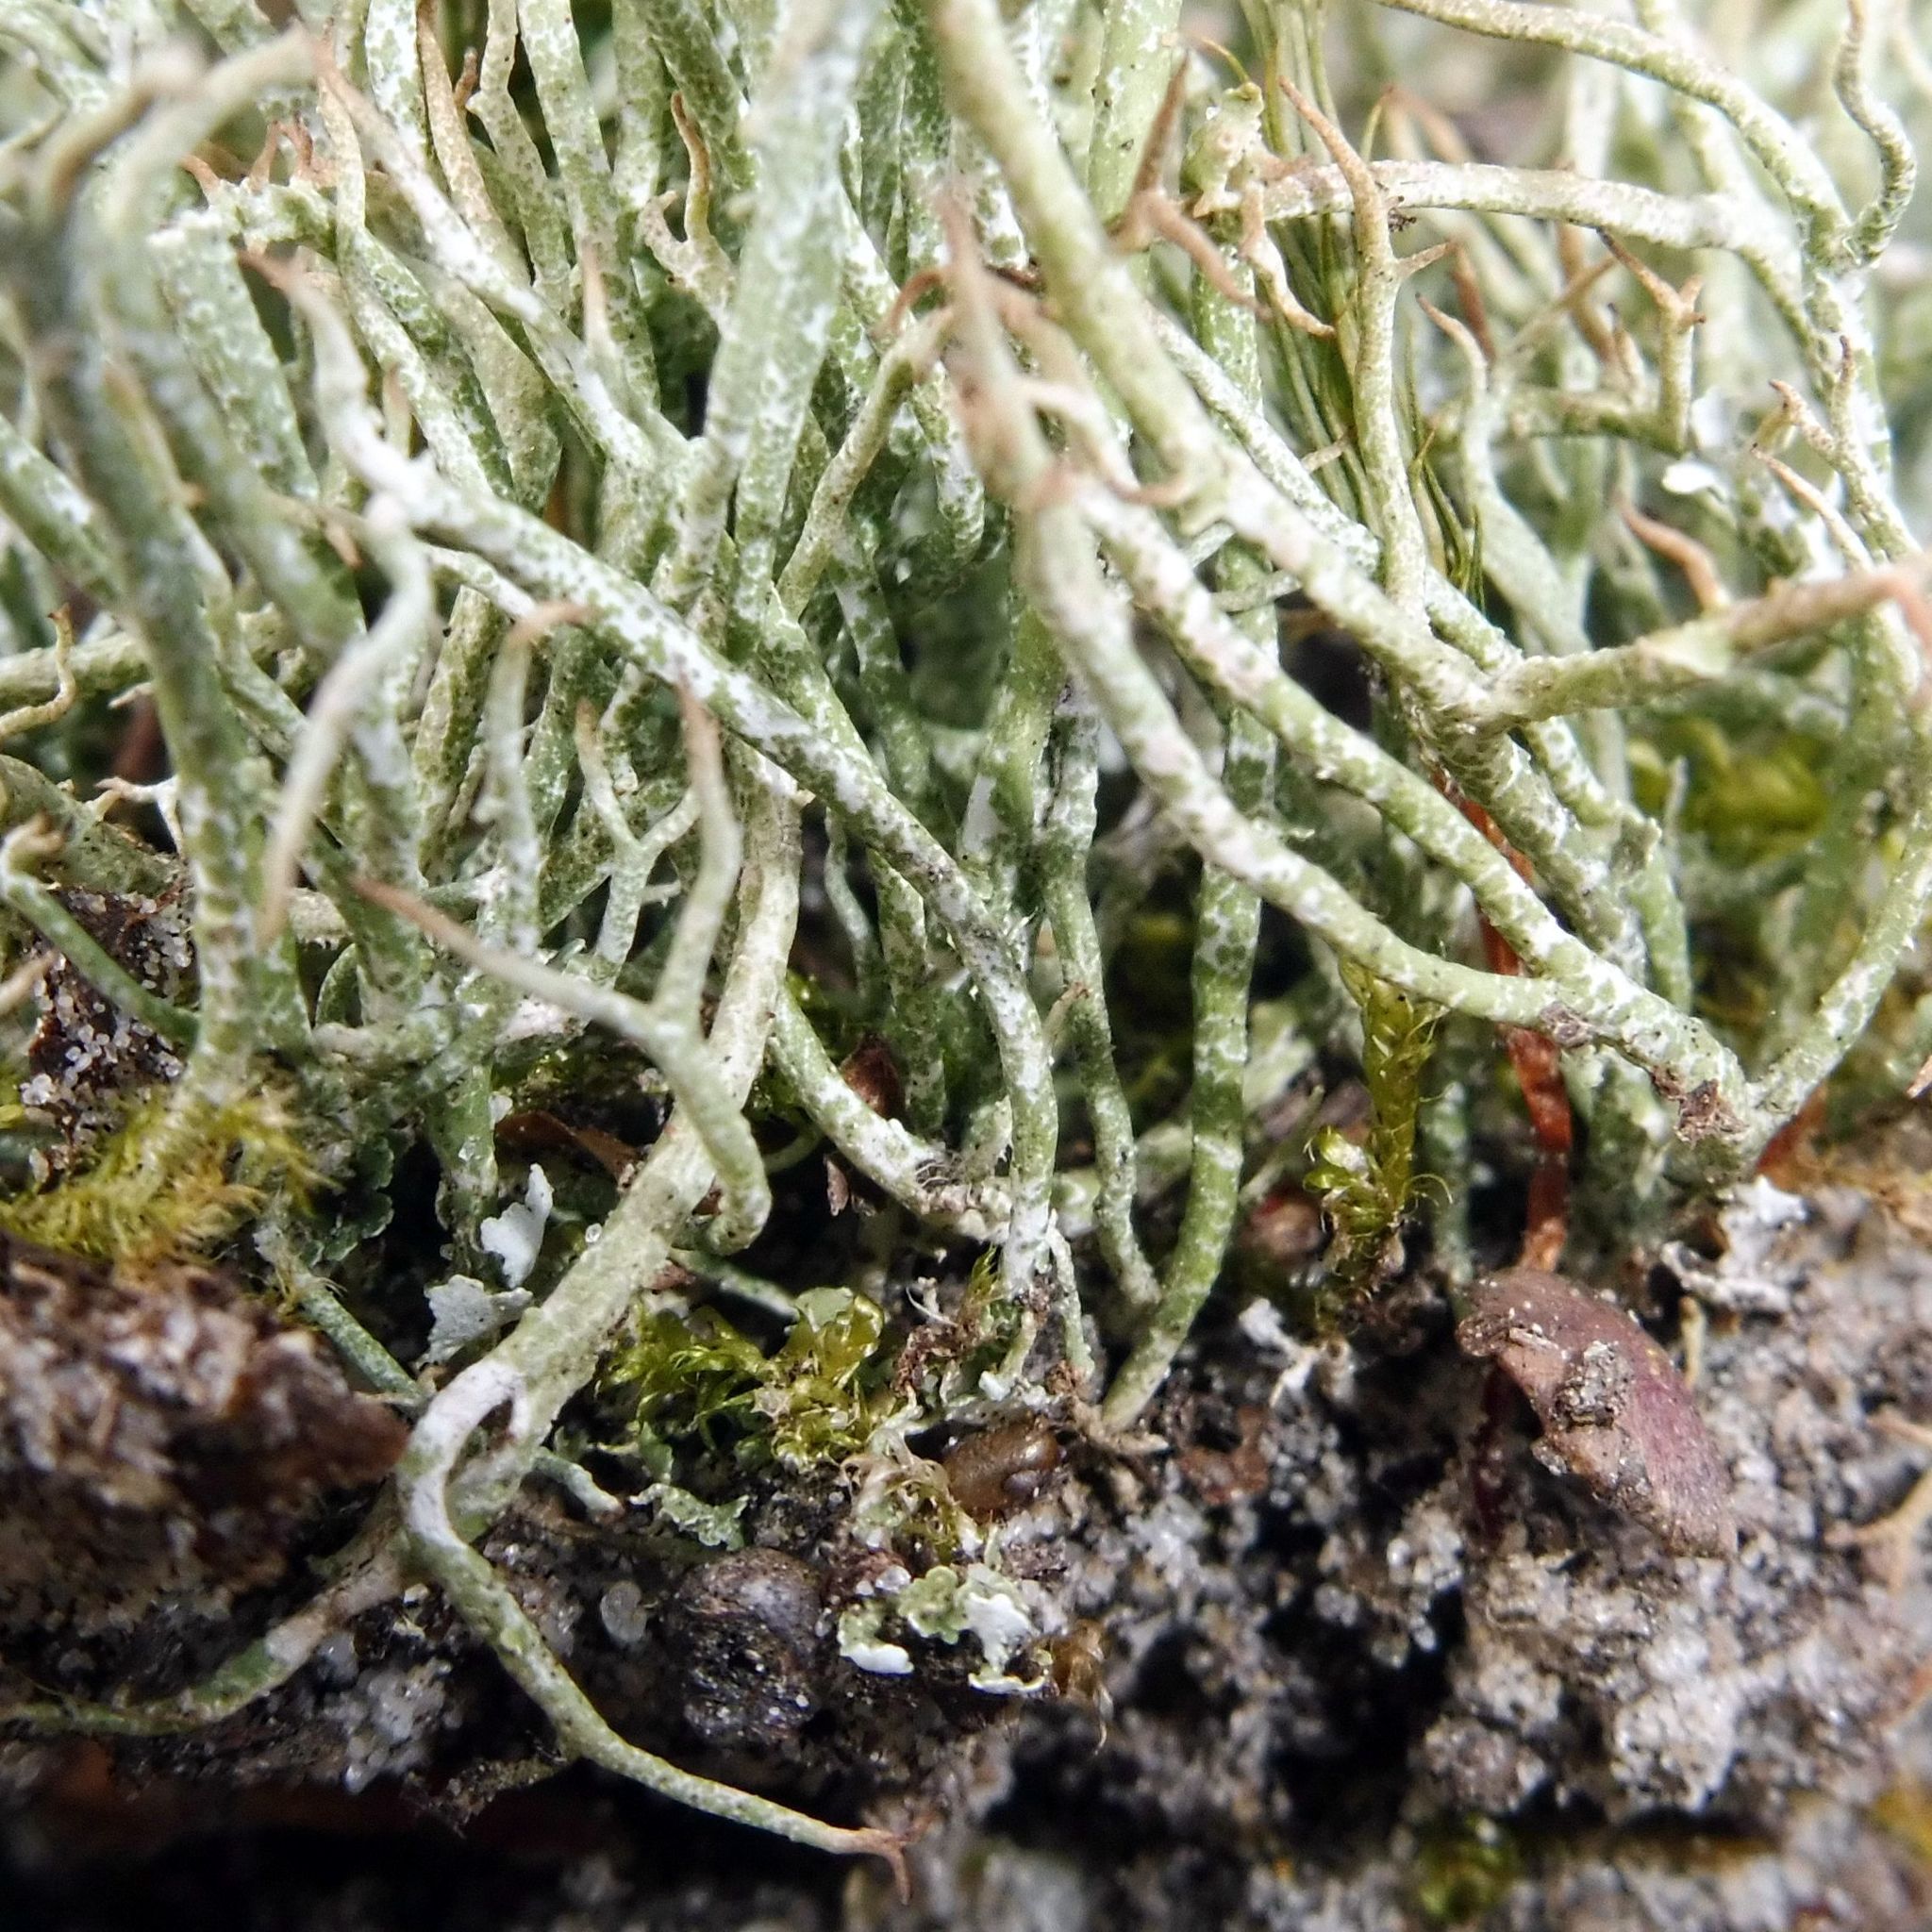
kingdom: Fungi
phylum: Ascomycota
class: Lecanoromycetes
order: Lecanorales
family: Cladoniaceae
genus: Cladonia
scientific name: Cladonia furcata
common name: Many-forked cladonia
